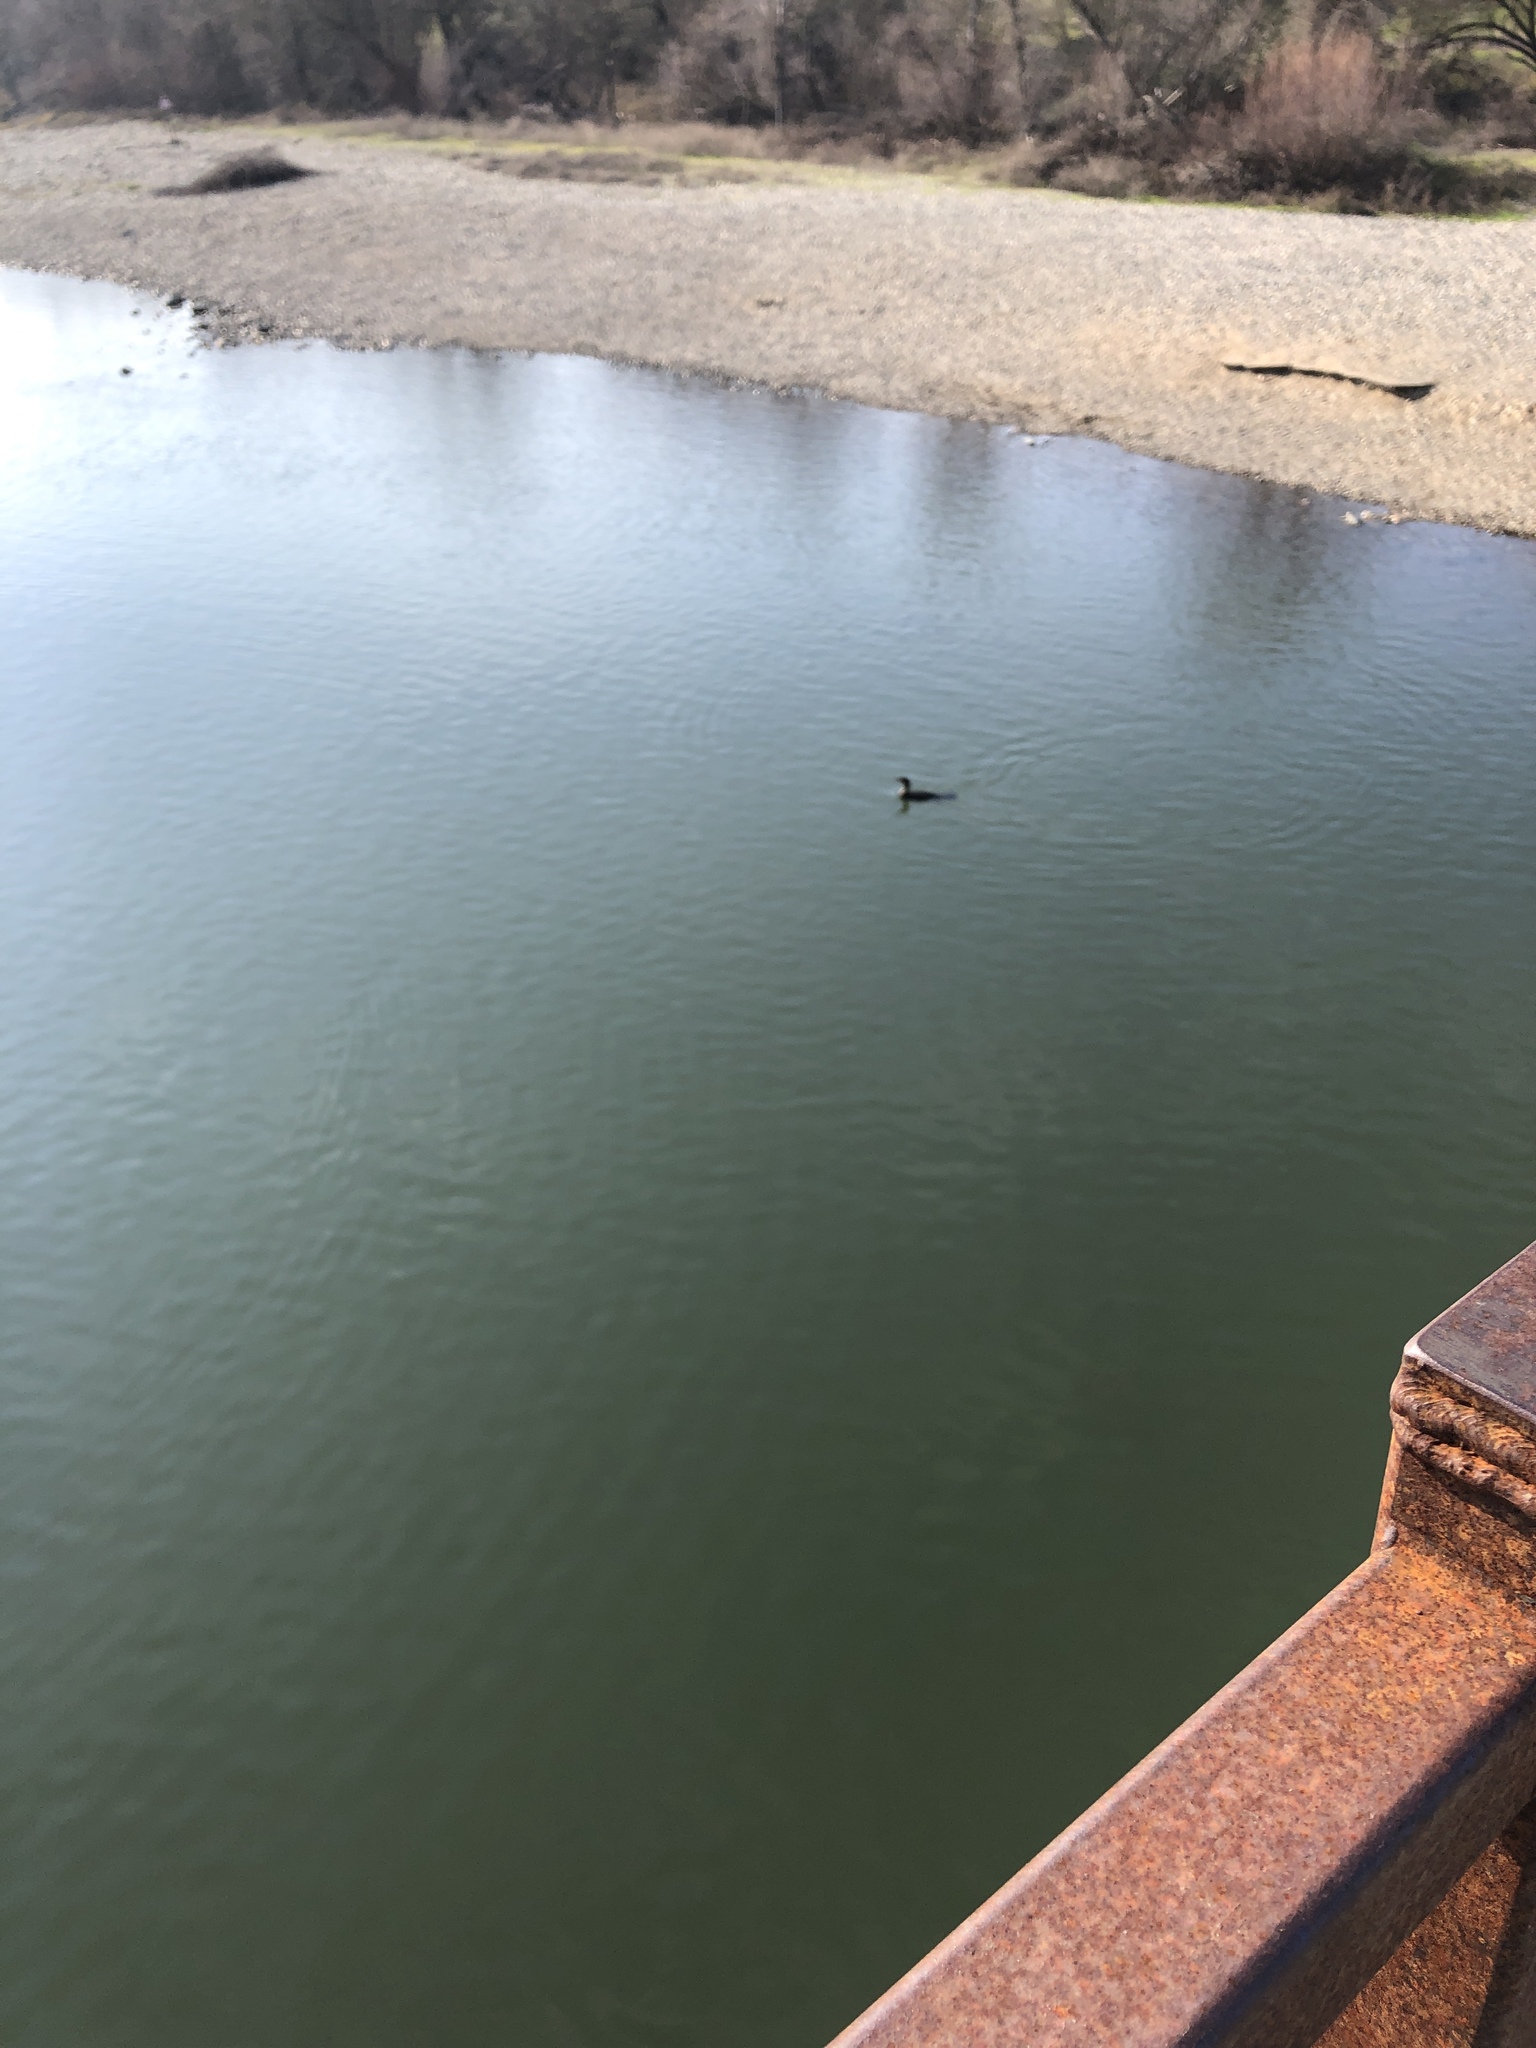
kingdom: Animalia
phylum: Chordata
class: Aves
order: Gaviiformes
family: Gaviidae
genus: Gavia
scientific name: Gavia immer
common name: Common loon
